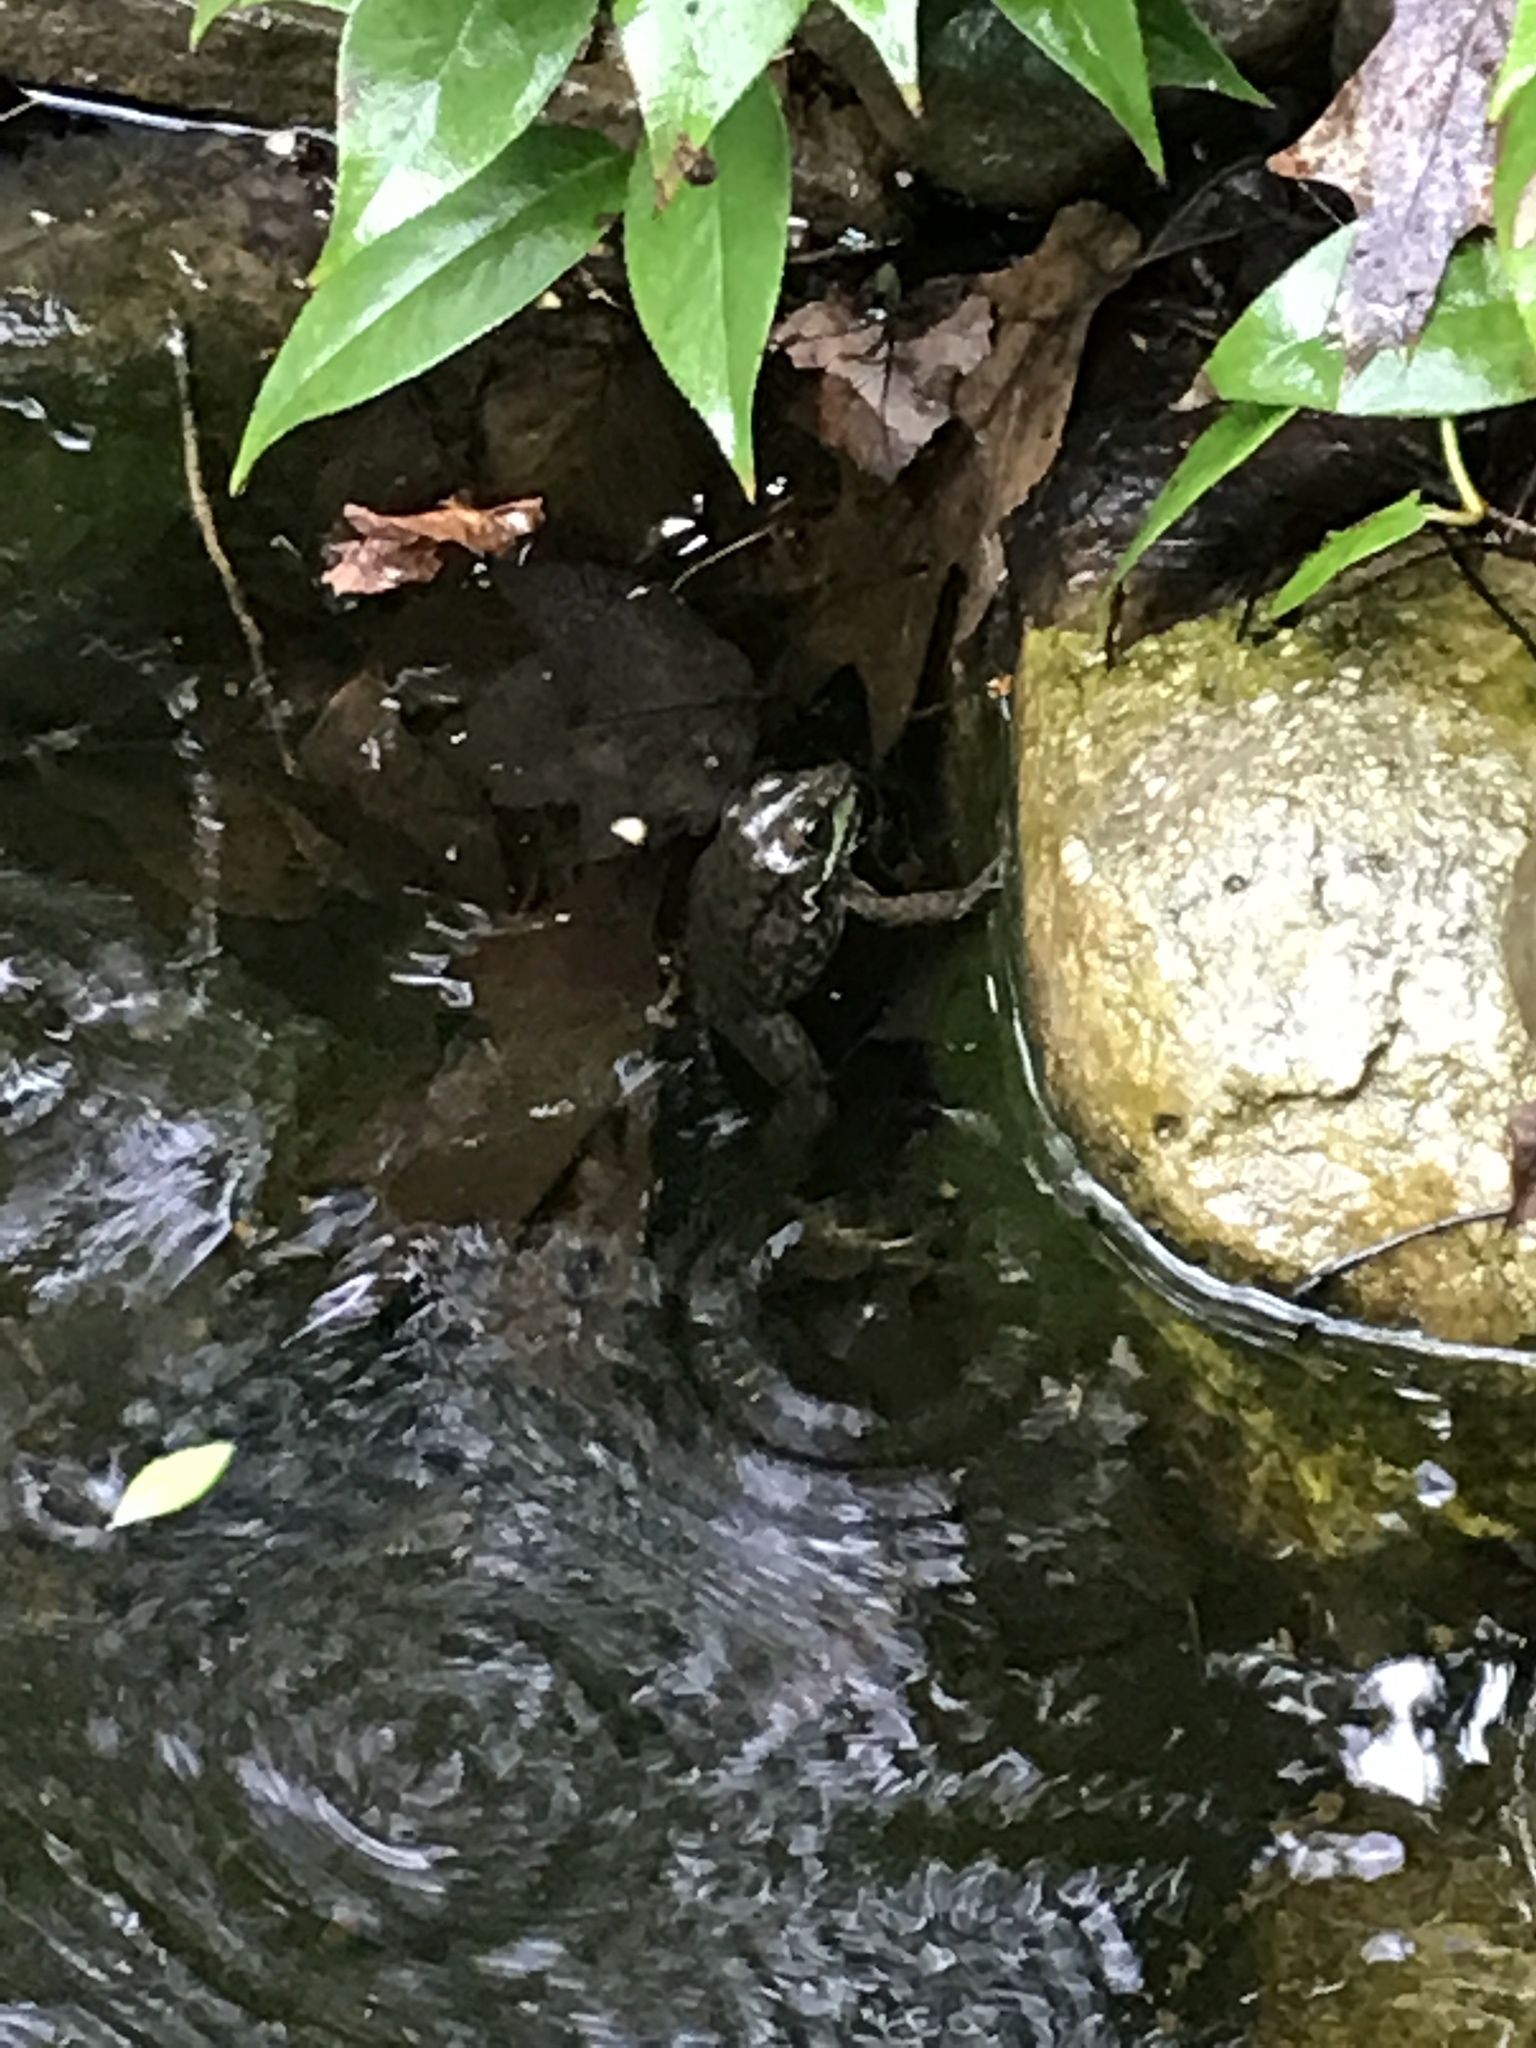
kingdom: Animalia
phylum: Chordata
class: Amphibia
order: Anura
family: Ranidae
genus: Lithobates
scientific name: Lithobates clamitans
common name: Green frog
